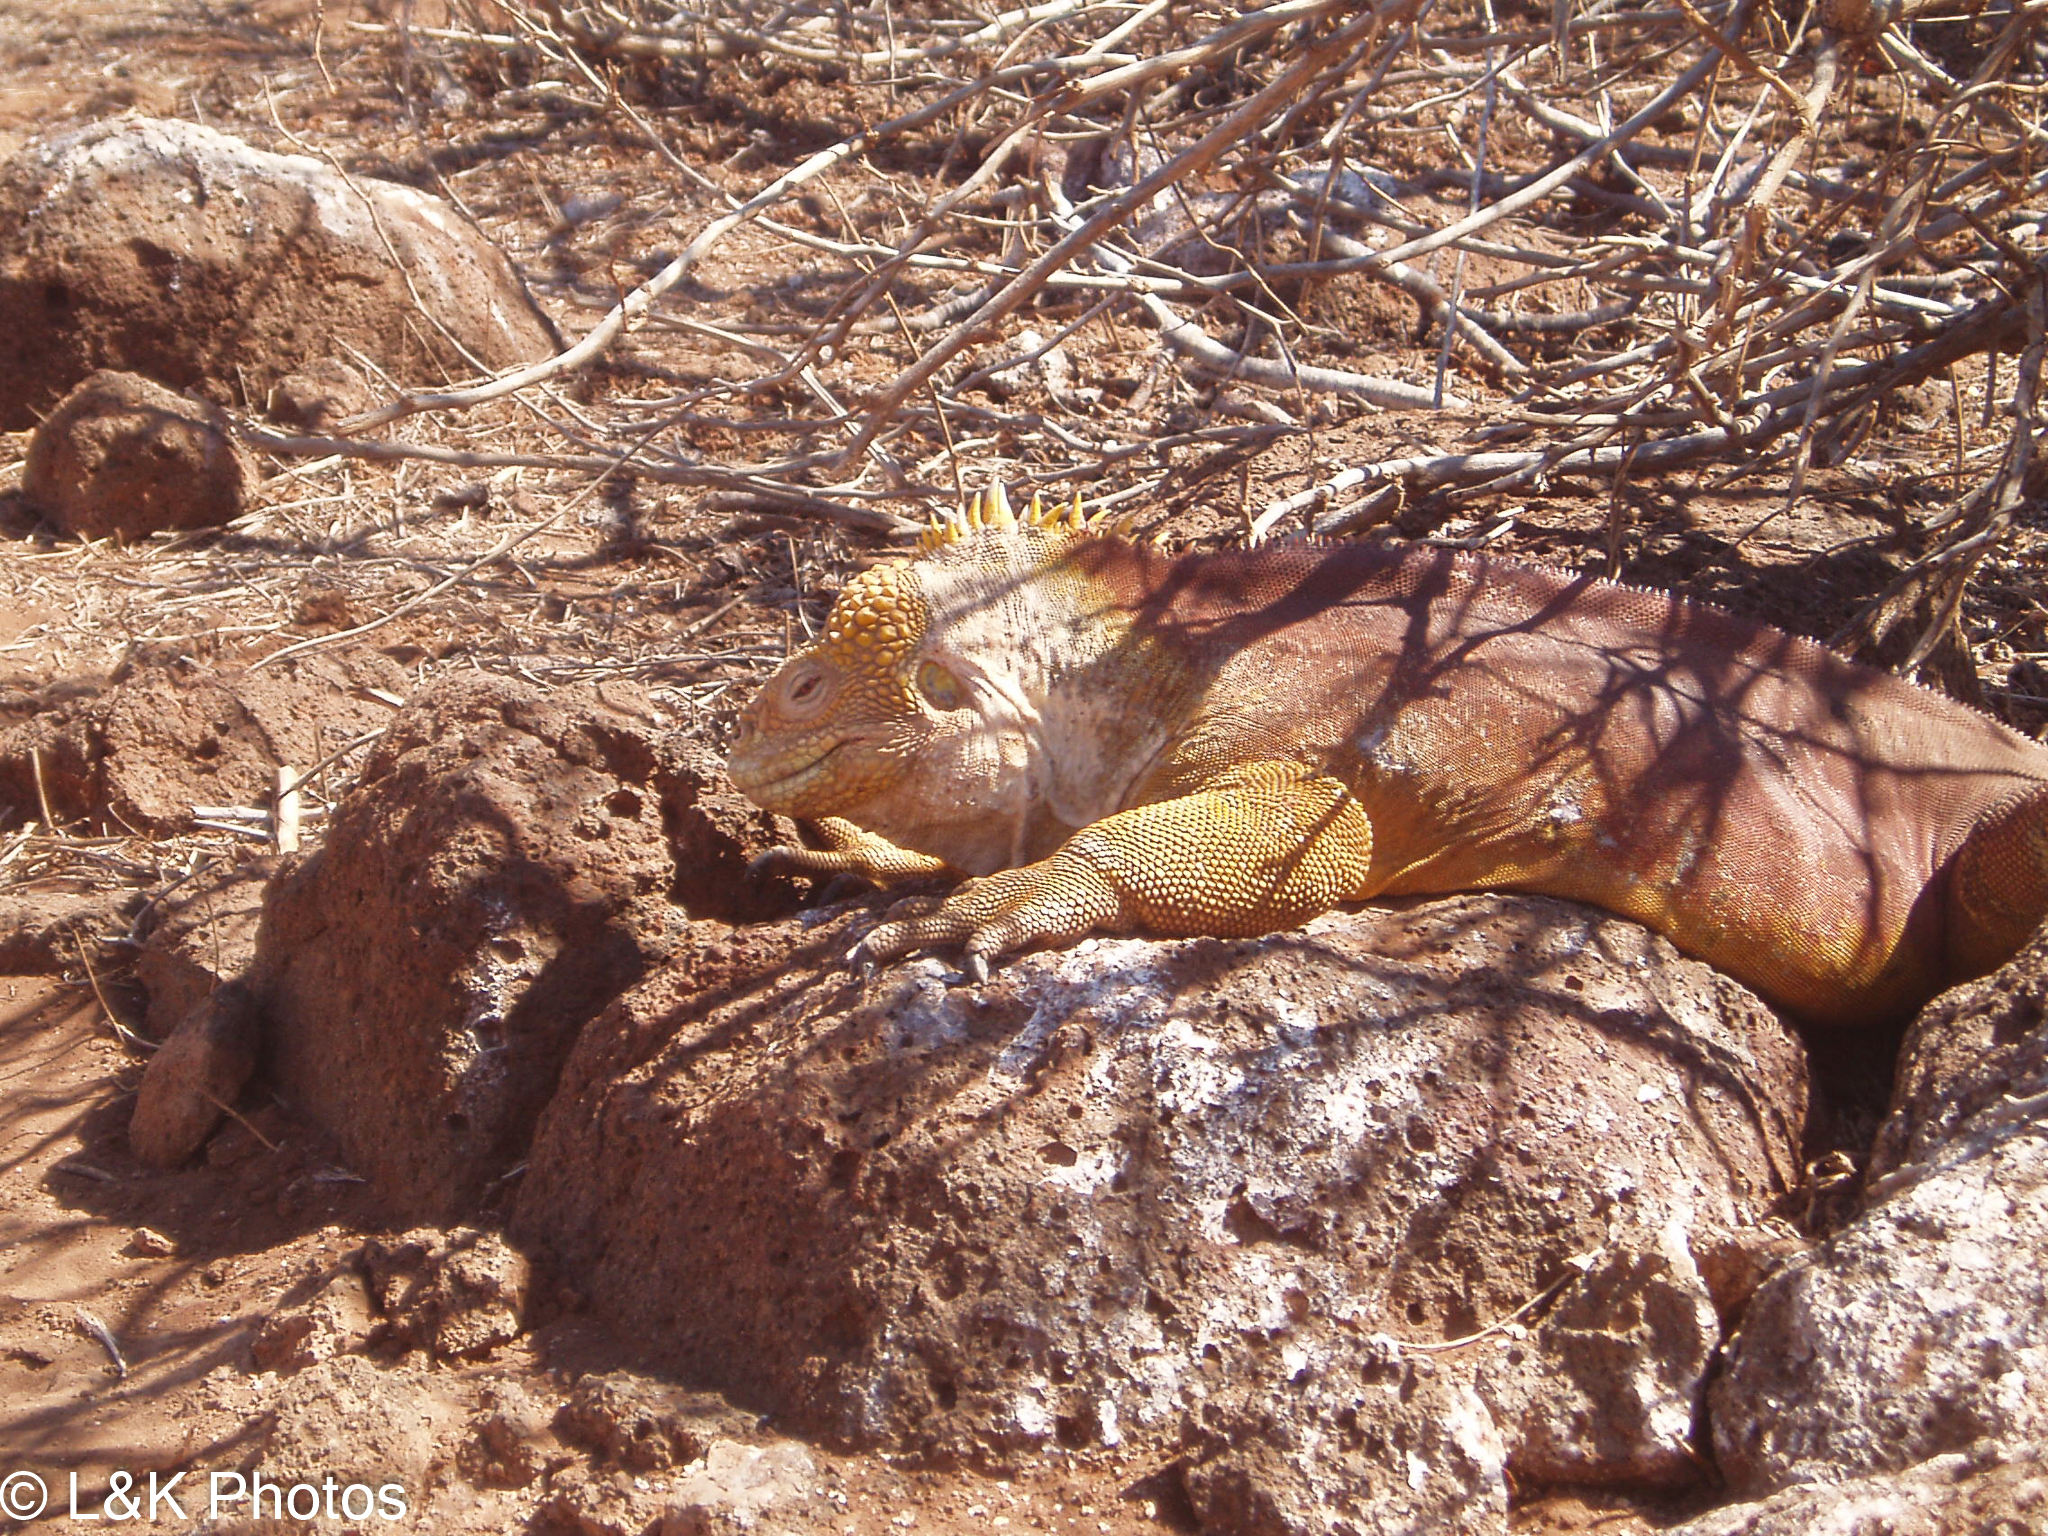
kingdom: Animalia
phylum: Chordata
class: Squamata
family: Iguanidae
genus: Conolophus
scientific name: Conolophus subcristatus
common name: Galapagos land iguana
